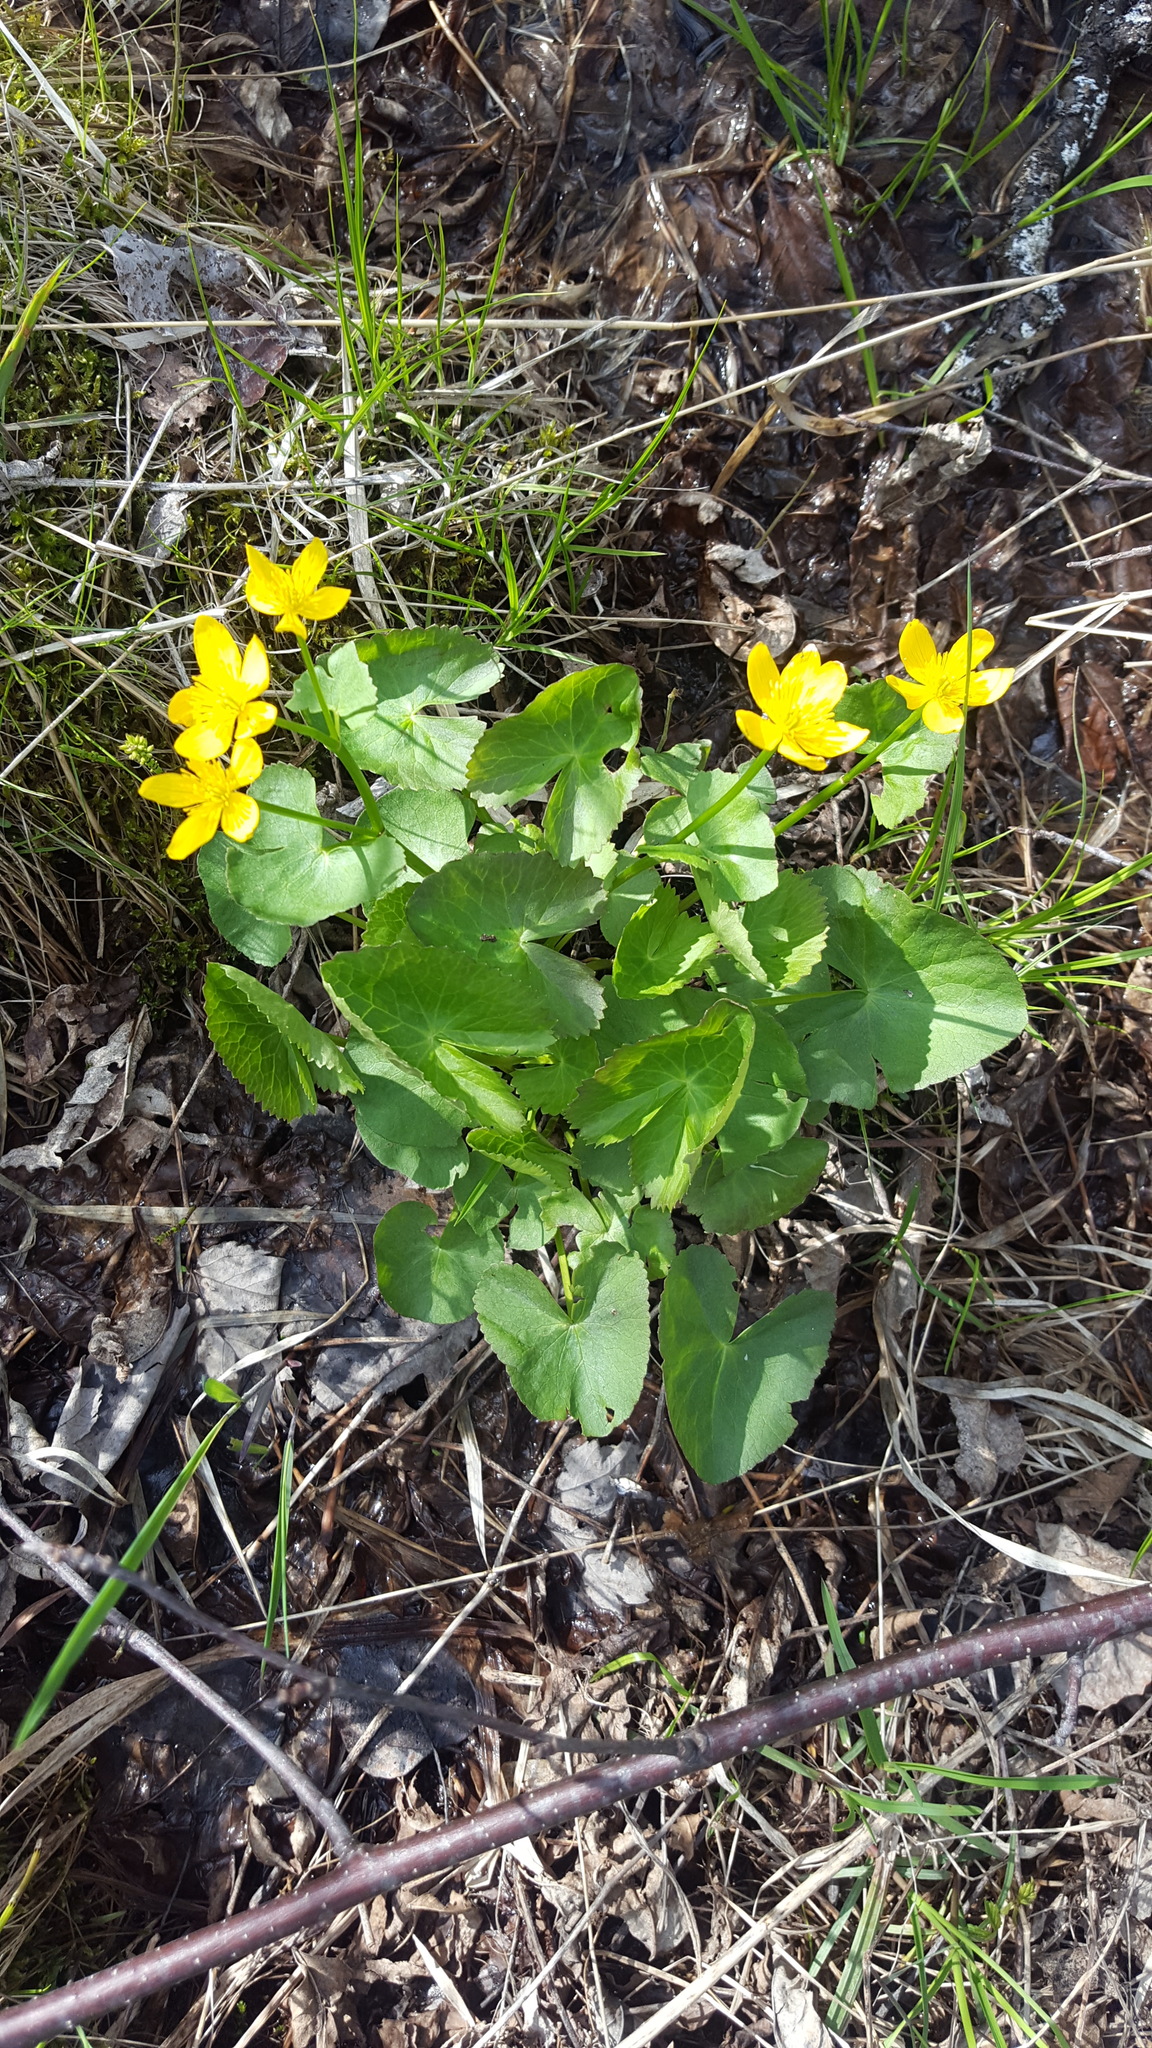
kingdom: Plantae
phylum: Tracheophyta
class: Magnoliopsida
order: Ranunculales
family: Ranunculaceae
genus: Caltha
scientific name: Caltha palustris
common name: Marsh marigold
